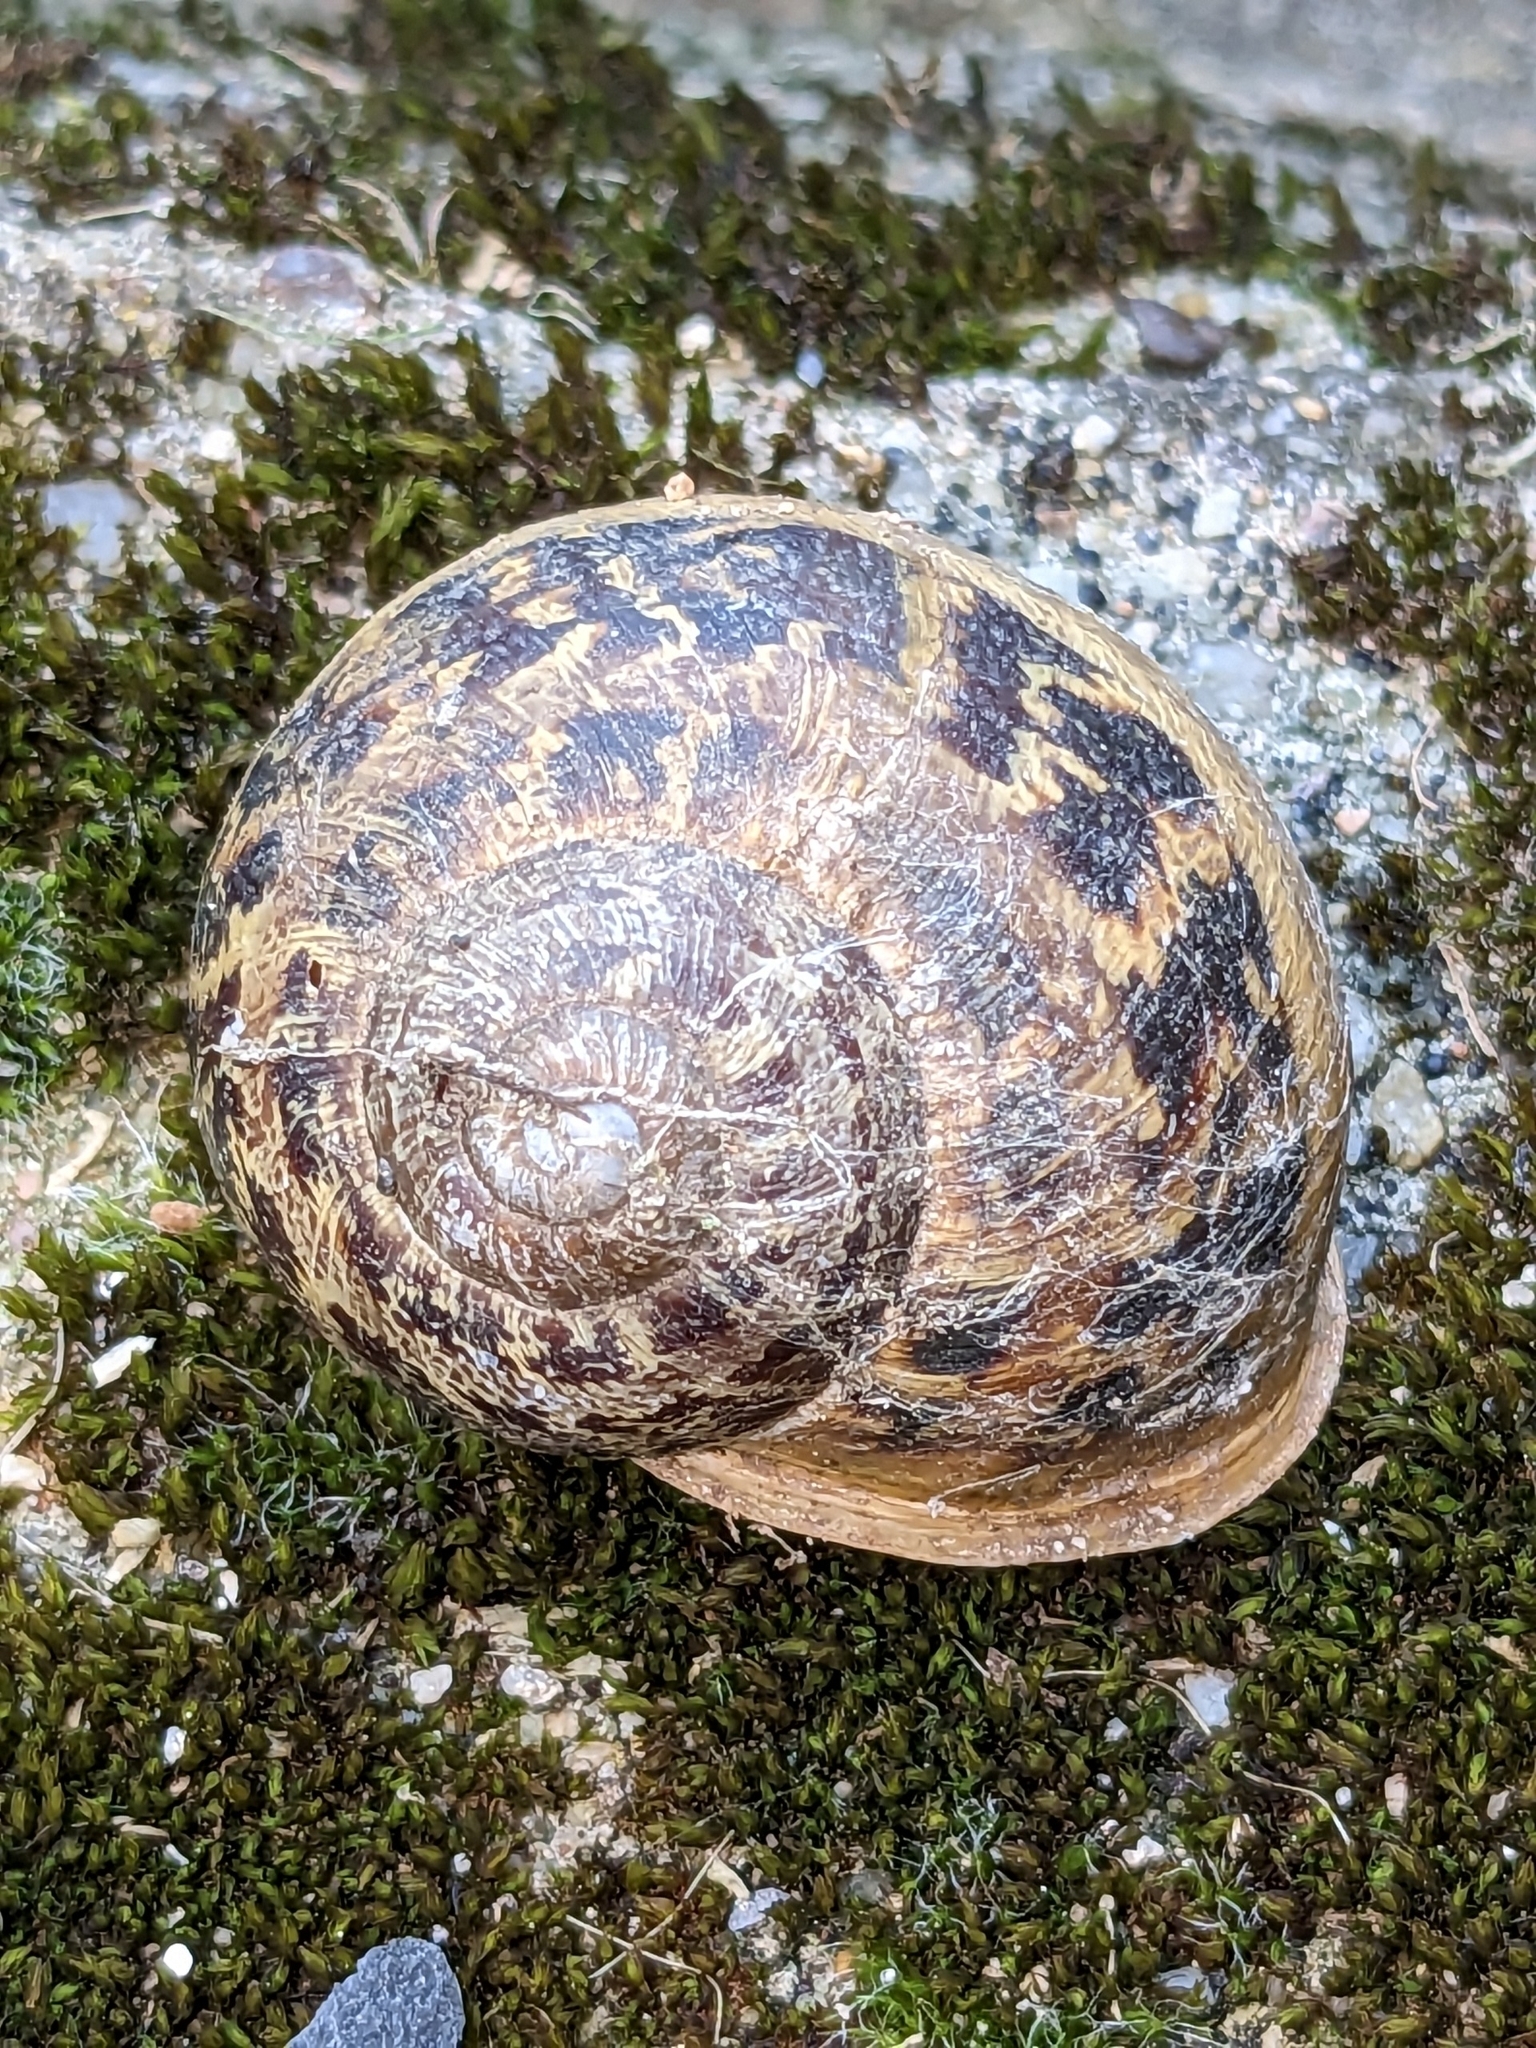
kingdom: Animalia
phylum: Mollusca
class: Gastropoda
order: Stylommatophora
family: Helicidae
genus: Cornu
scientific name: Cornu aspersum
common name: Brown garden snail
